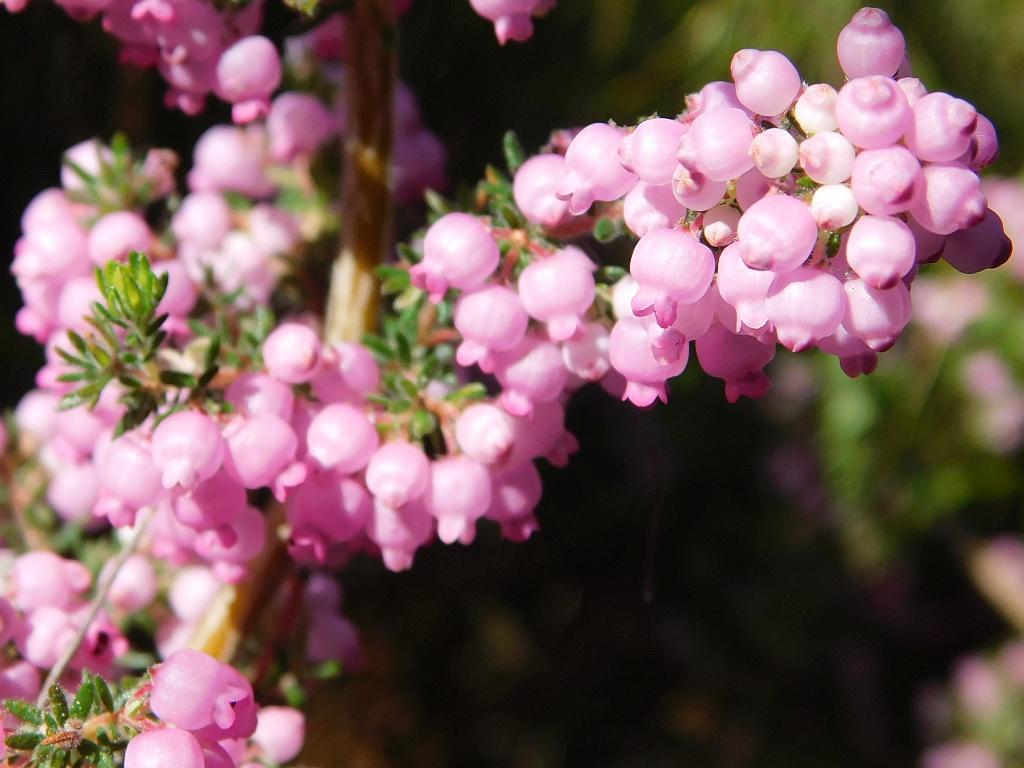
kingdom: Plantae
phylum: Tracheophyta
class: Magnoliopsida
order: Ericales
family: Ericaceae
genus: Erica
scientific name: Erica bergiana
